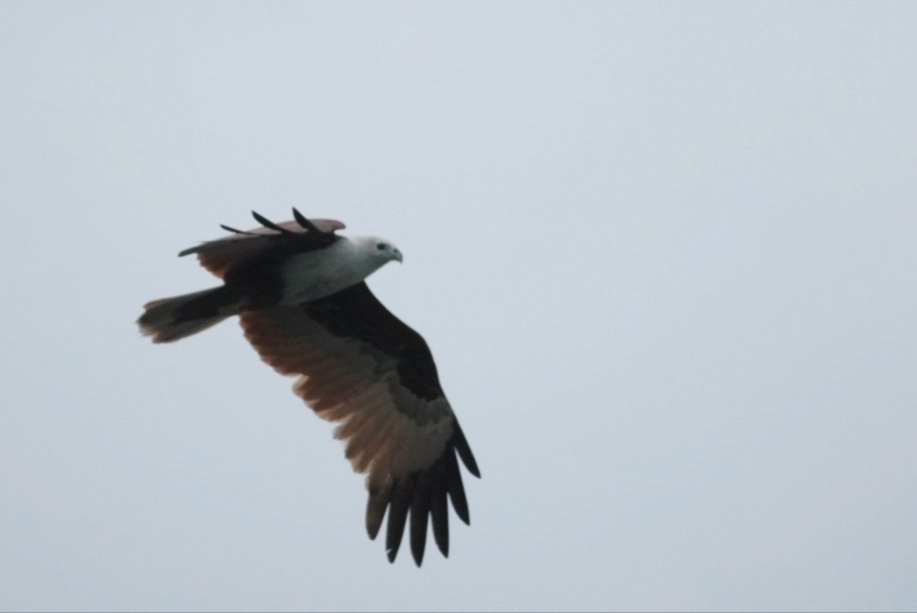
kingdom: Animalia
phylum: Chordata
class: Aves
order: Accipitriformes
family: Accipitridae
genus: Haliastur
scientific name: Haliastur indus
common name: Brahminy kite
